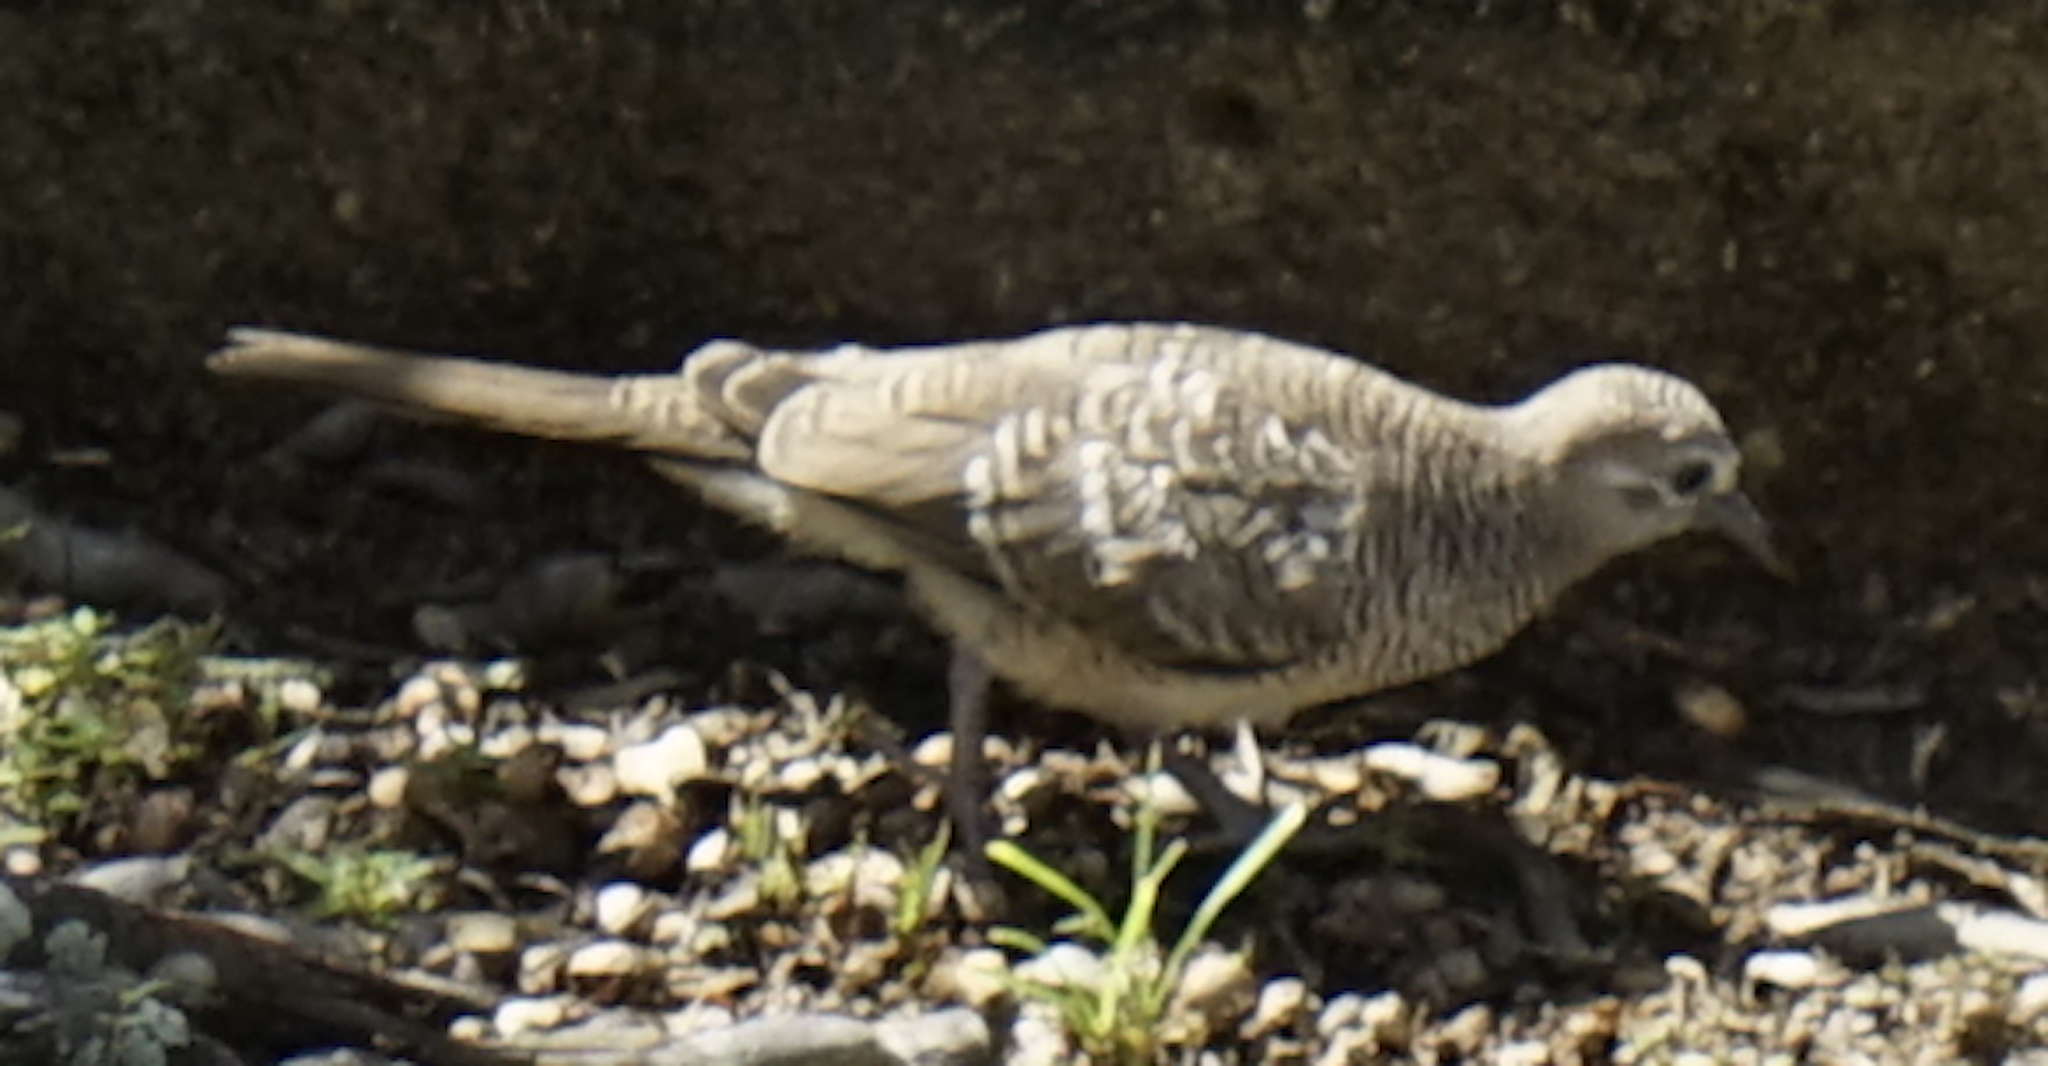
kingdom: Animalia
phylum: Chordata
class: Aves
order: Columbiformes
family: Columbidae
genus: Geopelia
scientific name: Geopelia striata
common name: Zebra dove
